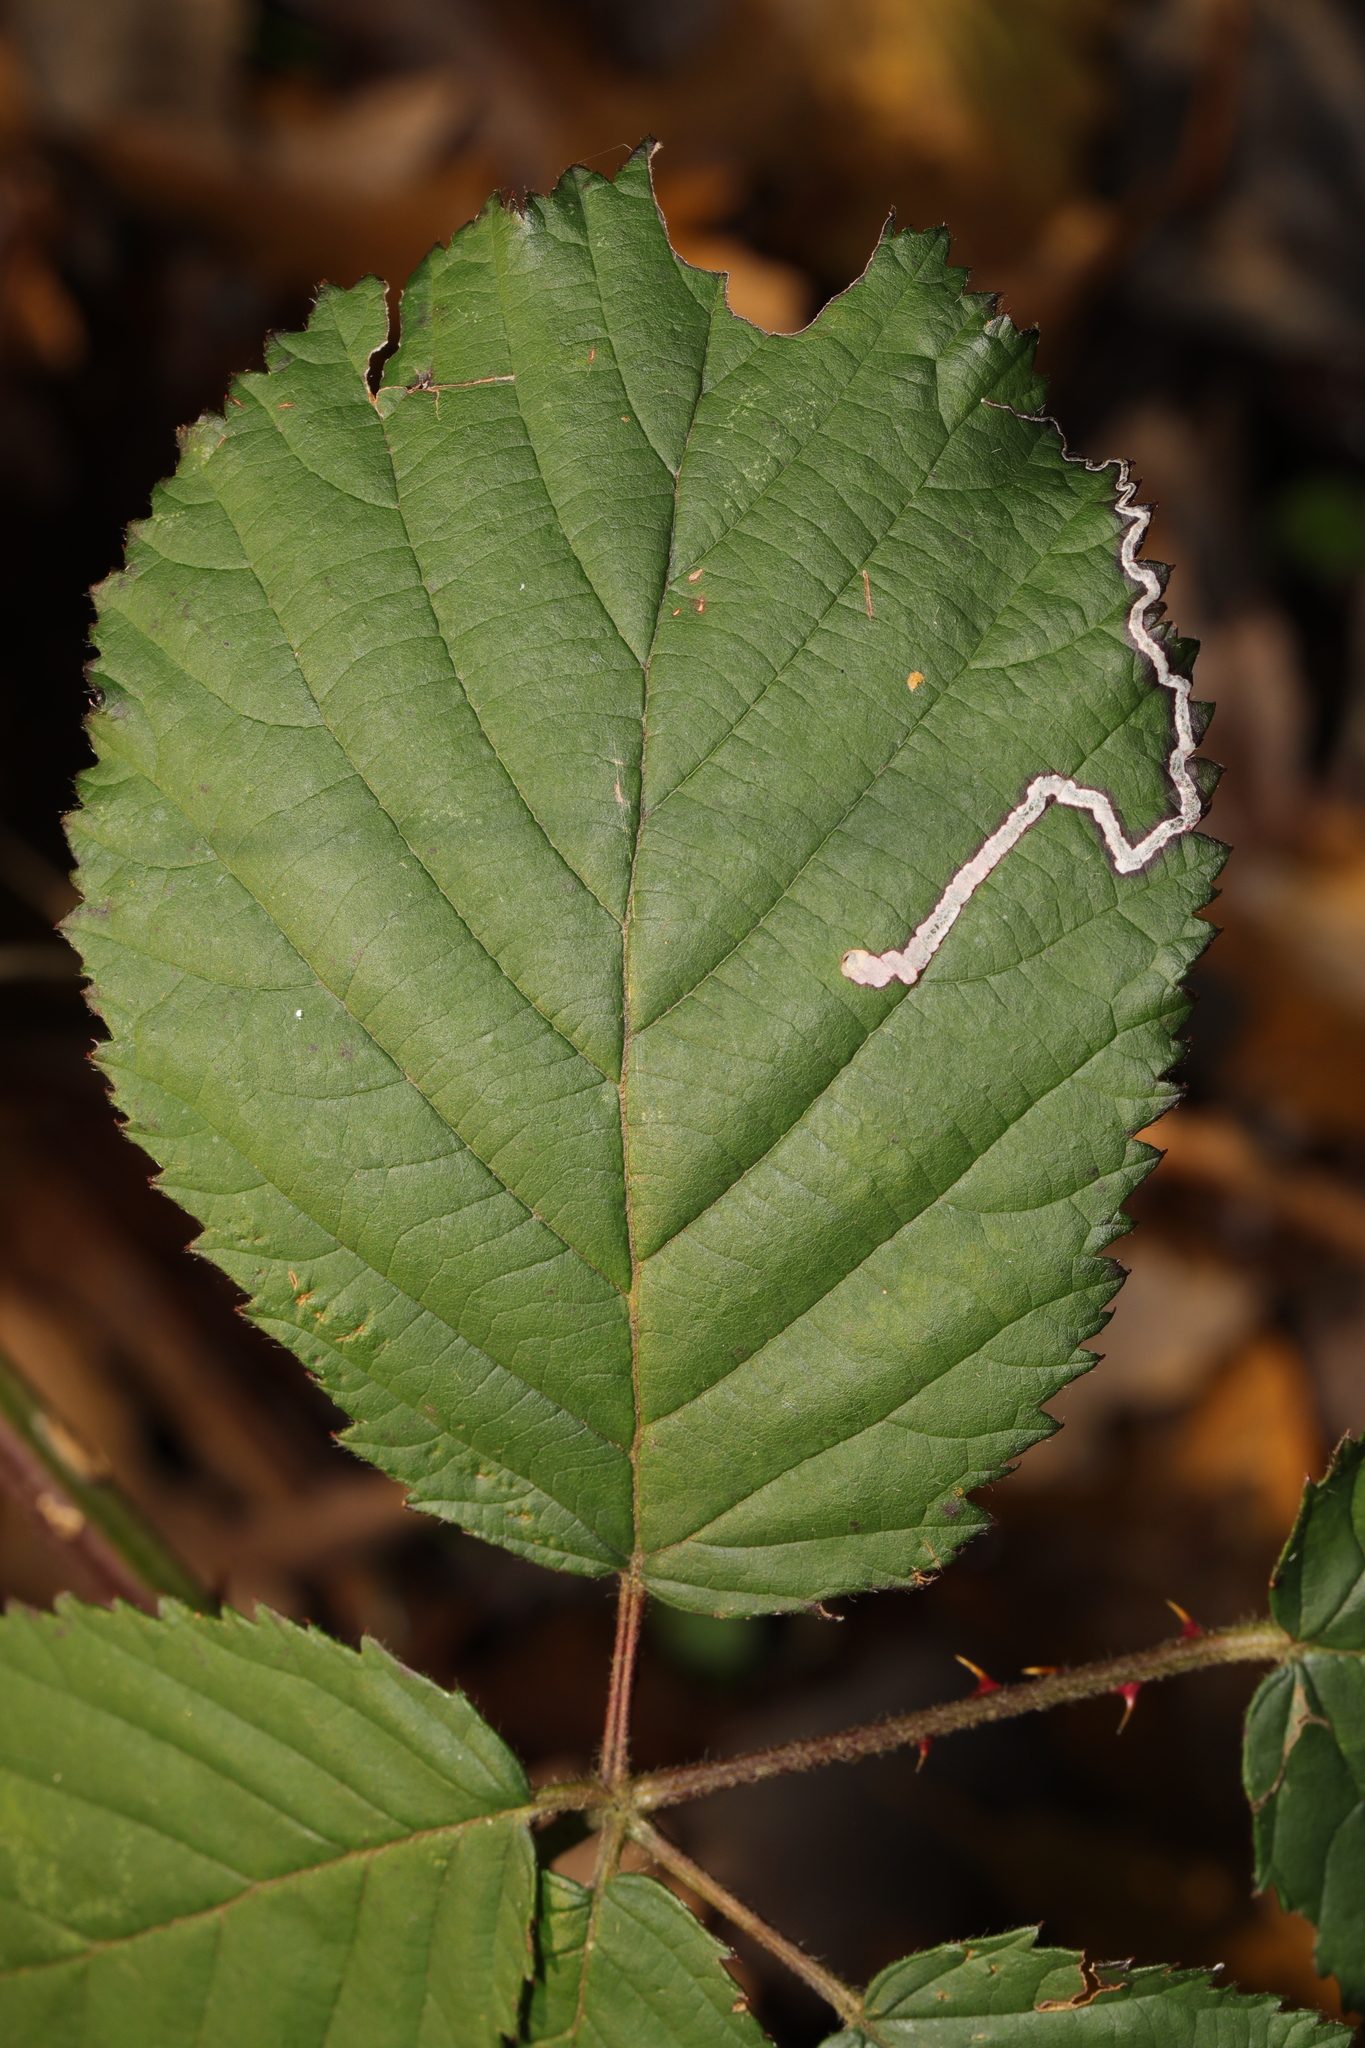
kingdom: Animalia
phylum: Arthropoda
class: Insecta
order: Lepidoptera
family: Nepticulidae
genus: Stigmella
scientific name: Stigmella aurella
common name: Golden pigmy
